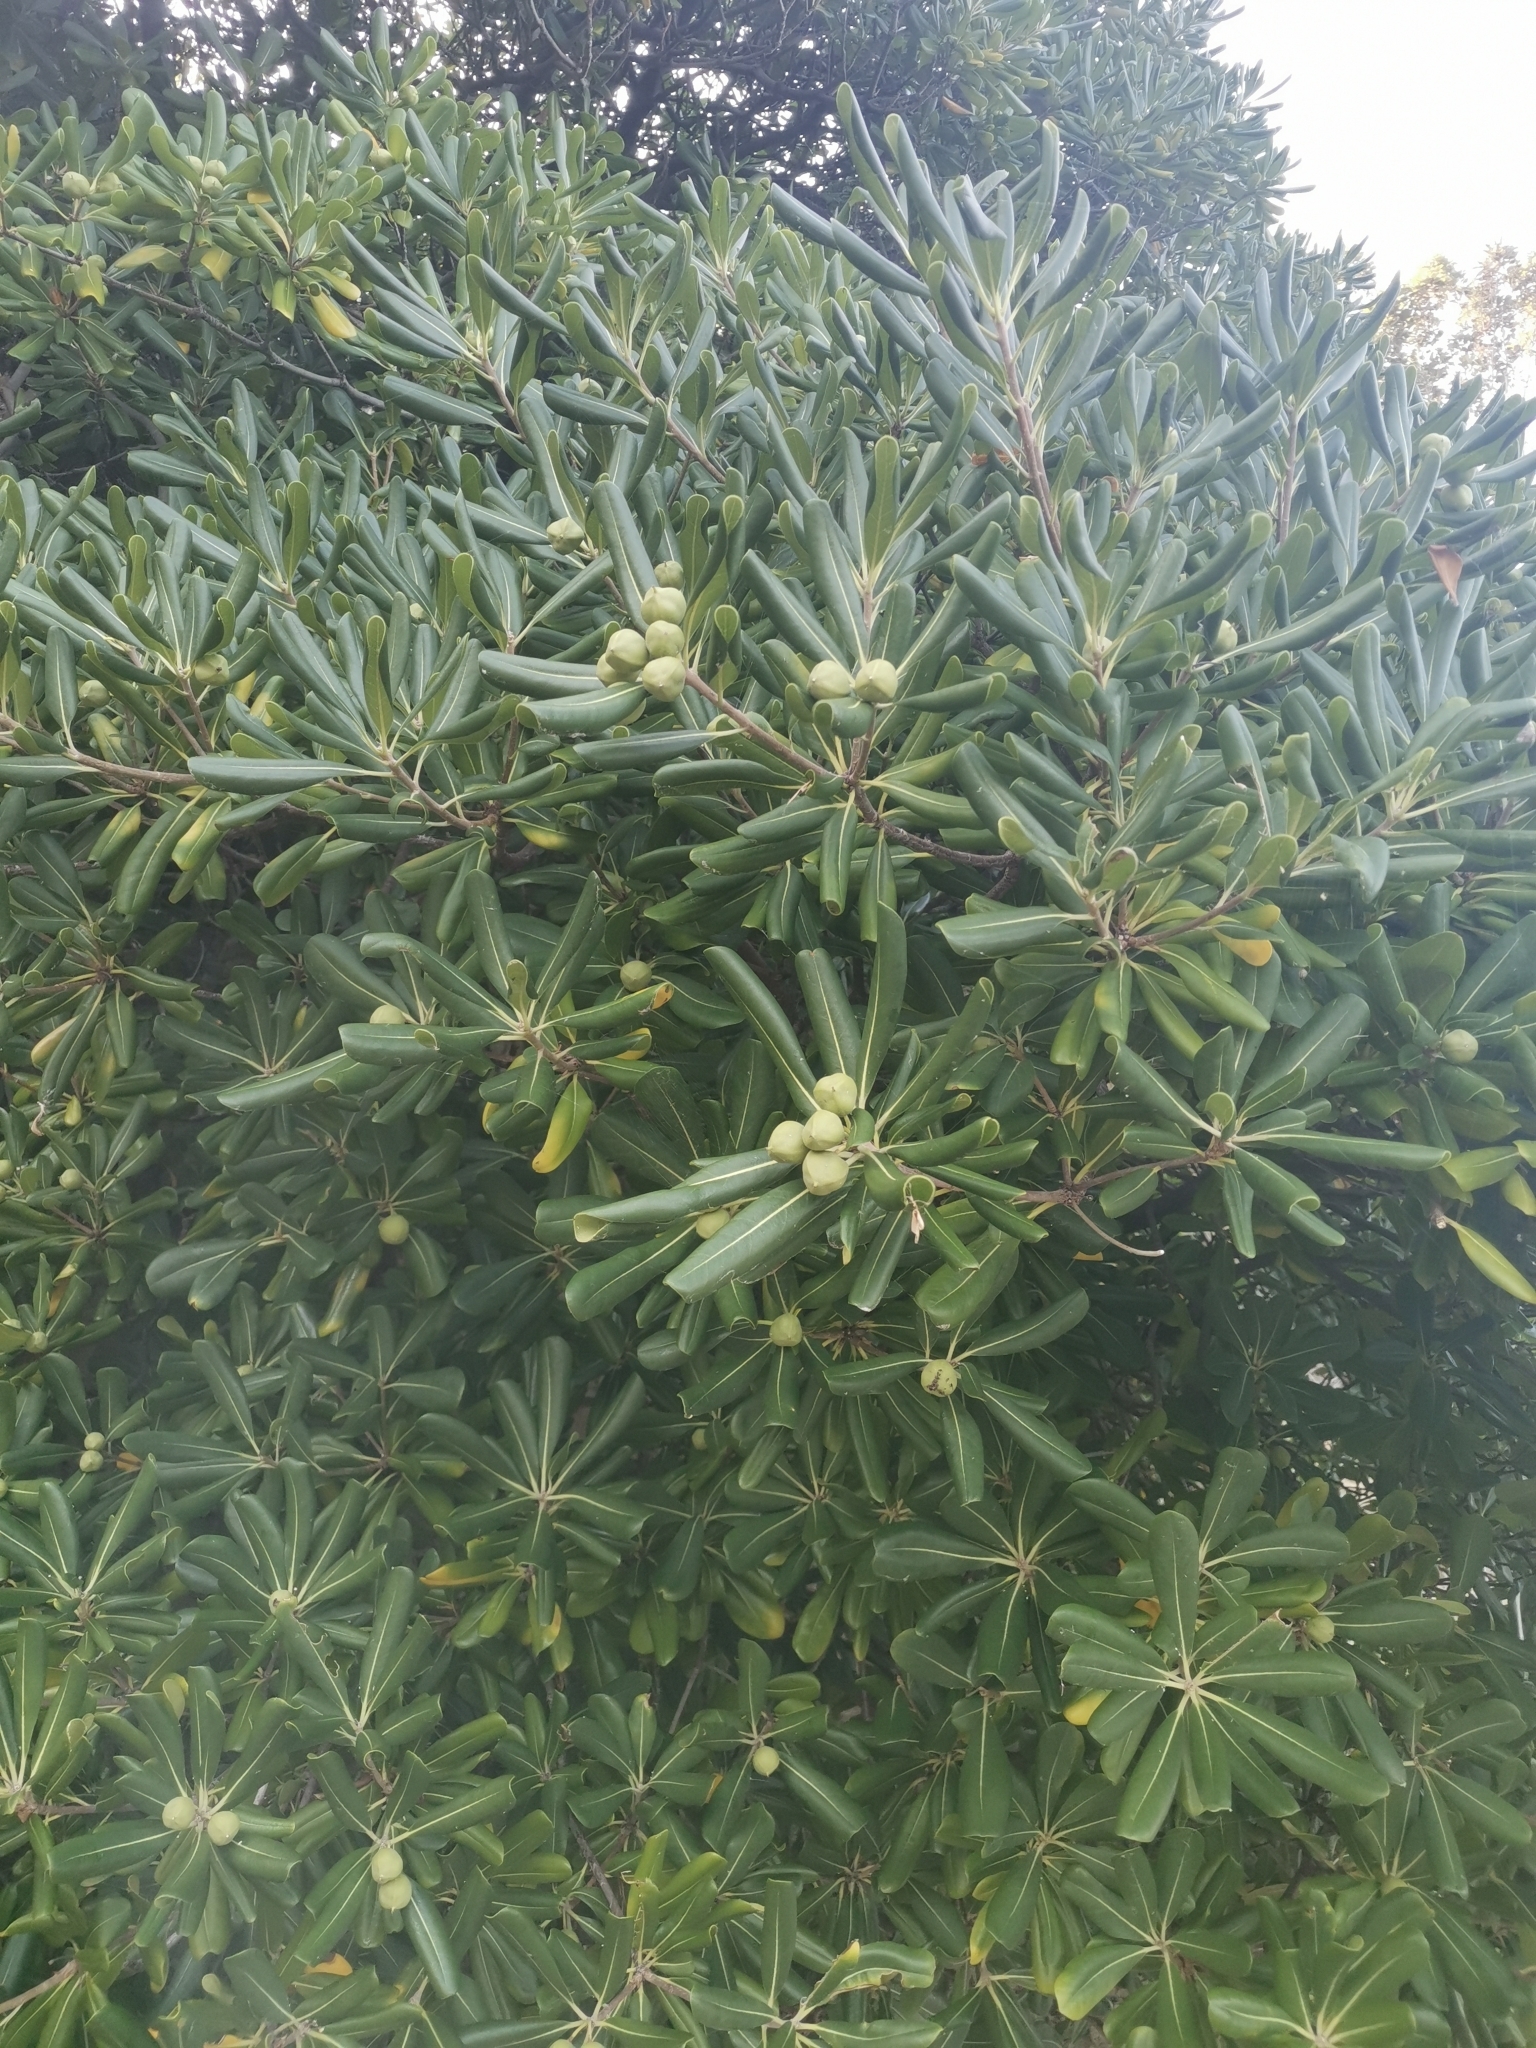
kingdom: Plantae
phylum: Tracheophyta
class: Magnoliopsida
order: Apiales
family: Pittosporaceae
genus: Pittosporum
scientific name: Pittosporum tobira
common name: Japanese cheesewood
